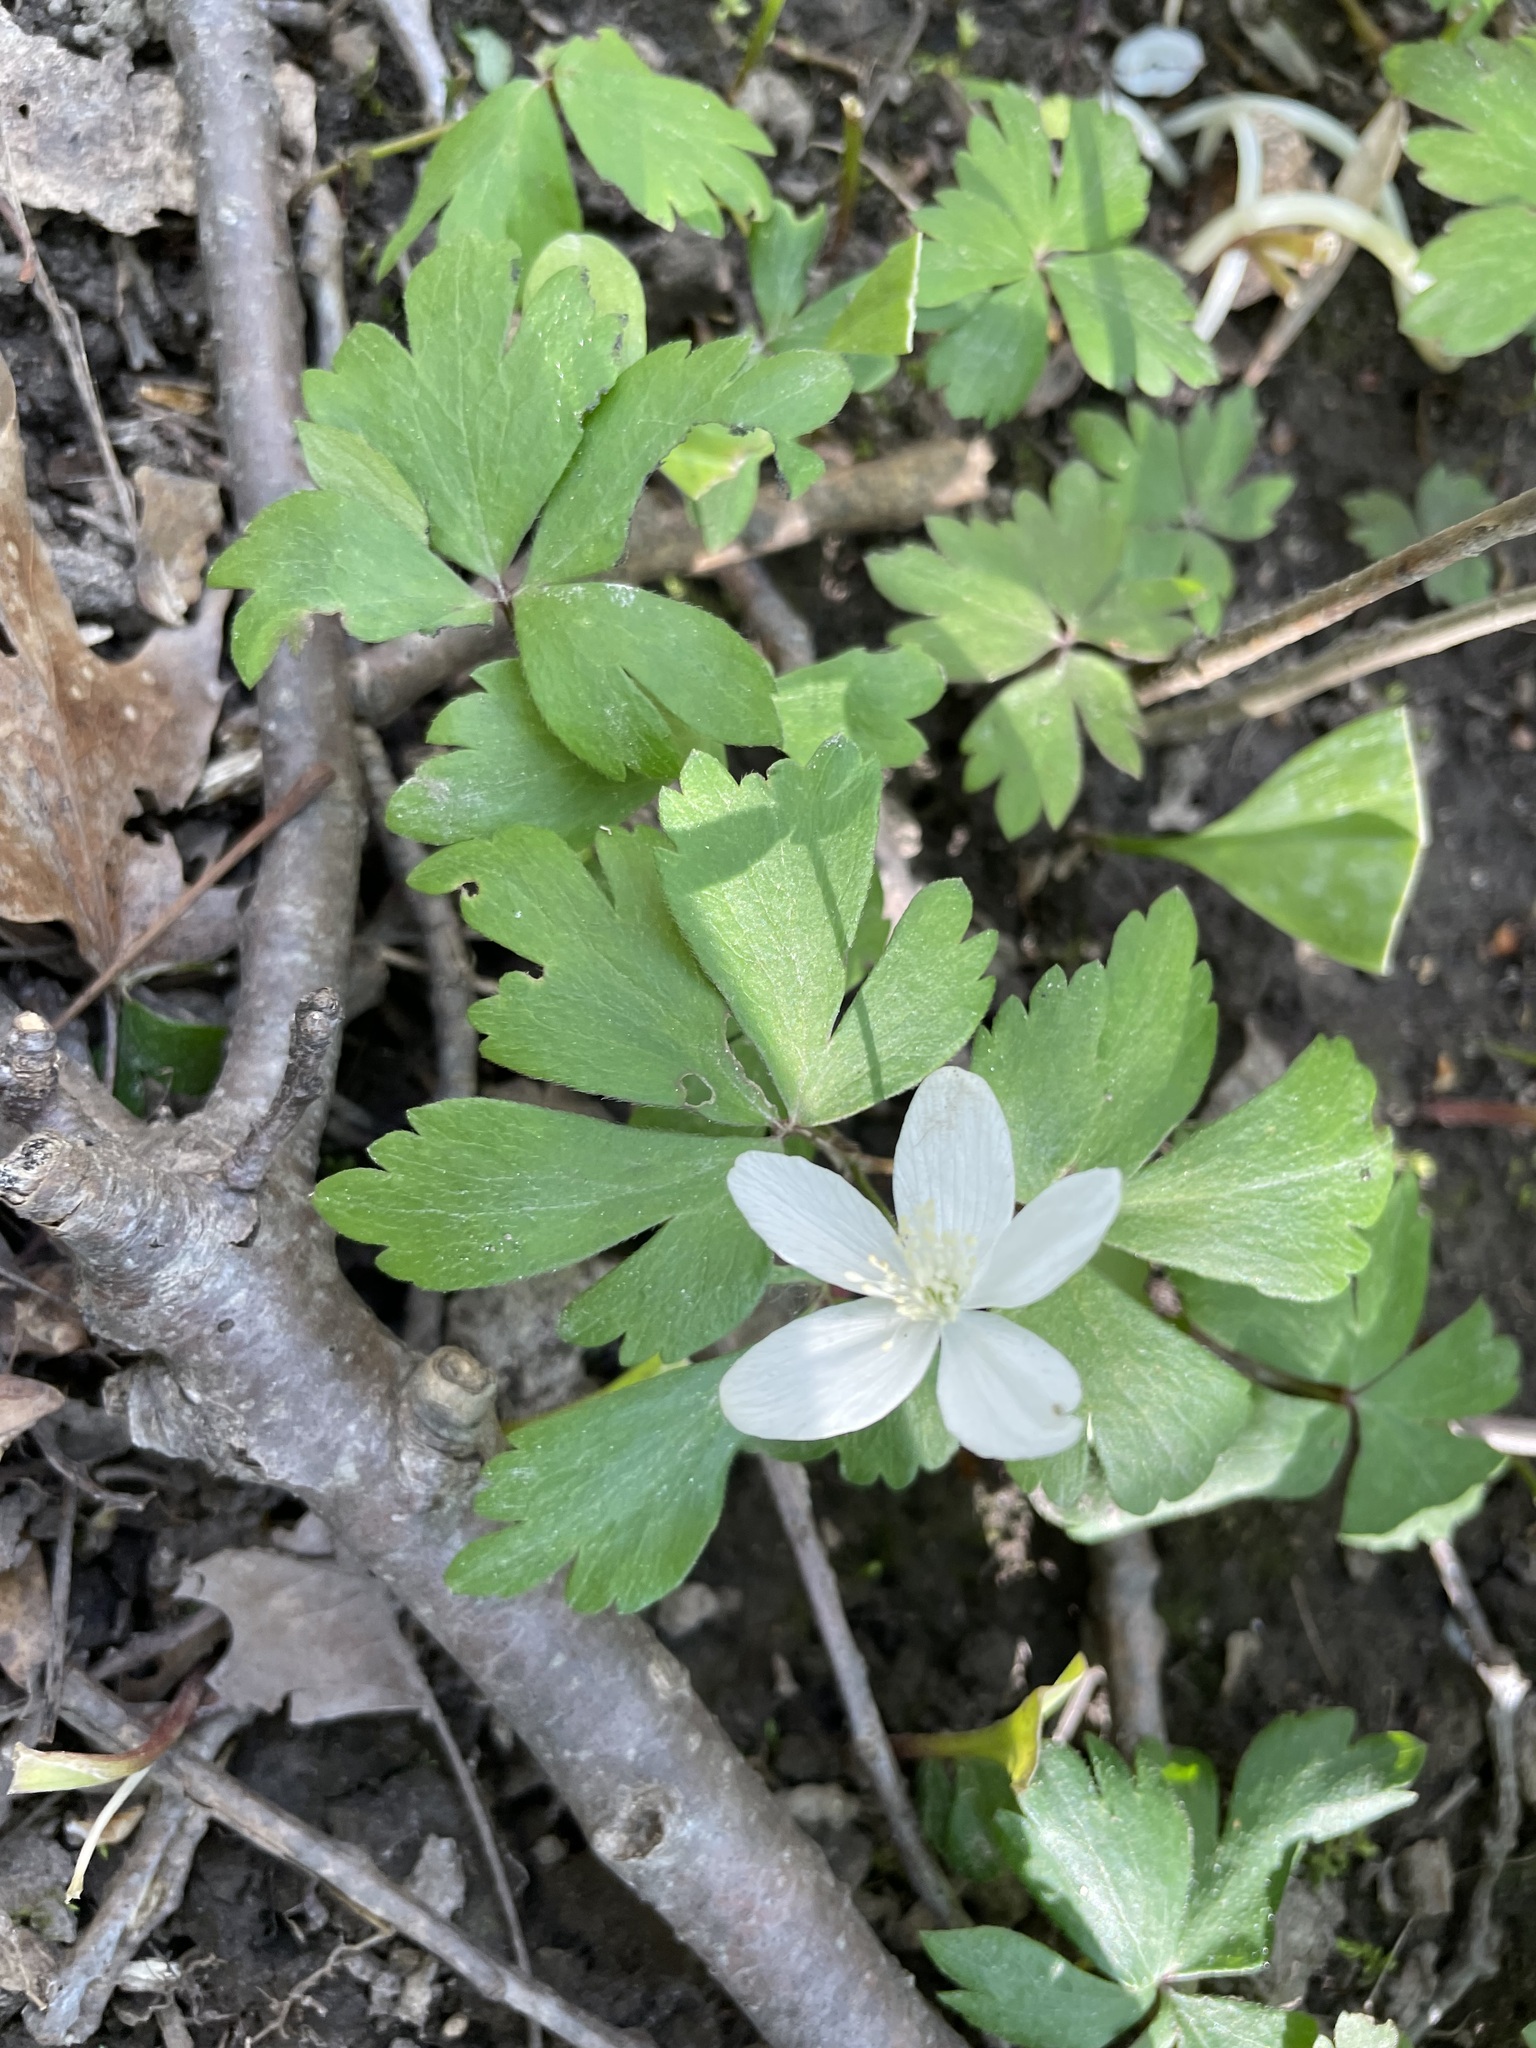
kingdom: Plantae
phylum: Tracheophyta
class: Magnoliopsida
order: Ranunculales
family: Ranunculaceae
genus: Anemone
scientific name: Anemone quinquefolia
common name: Wood anemone
